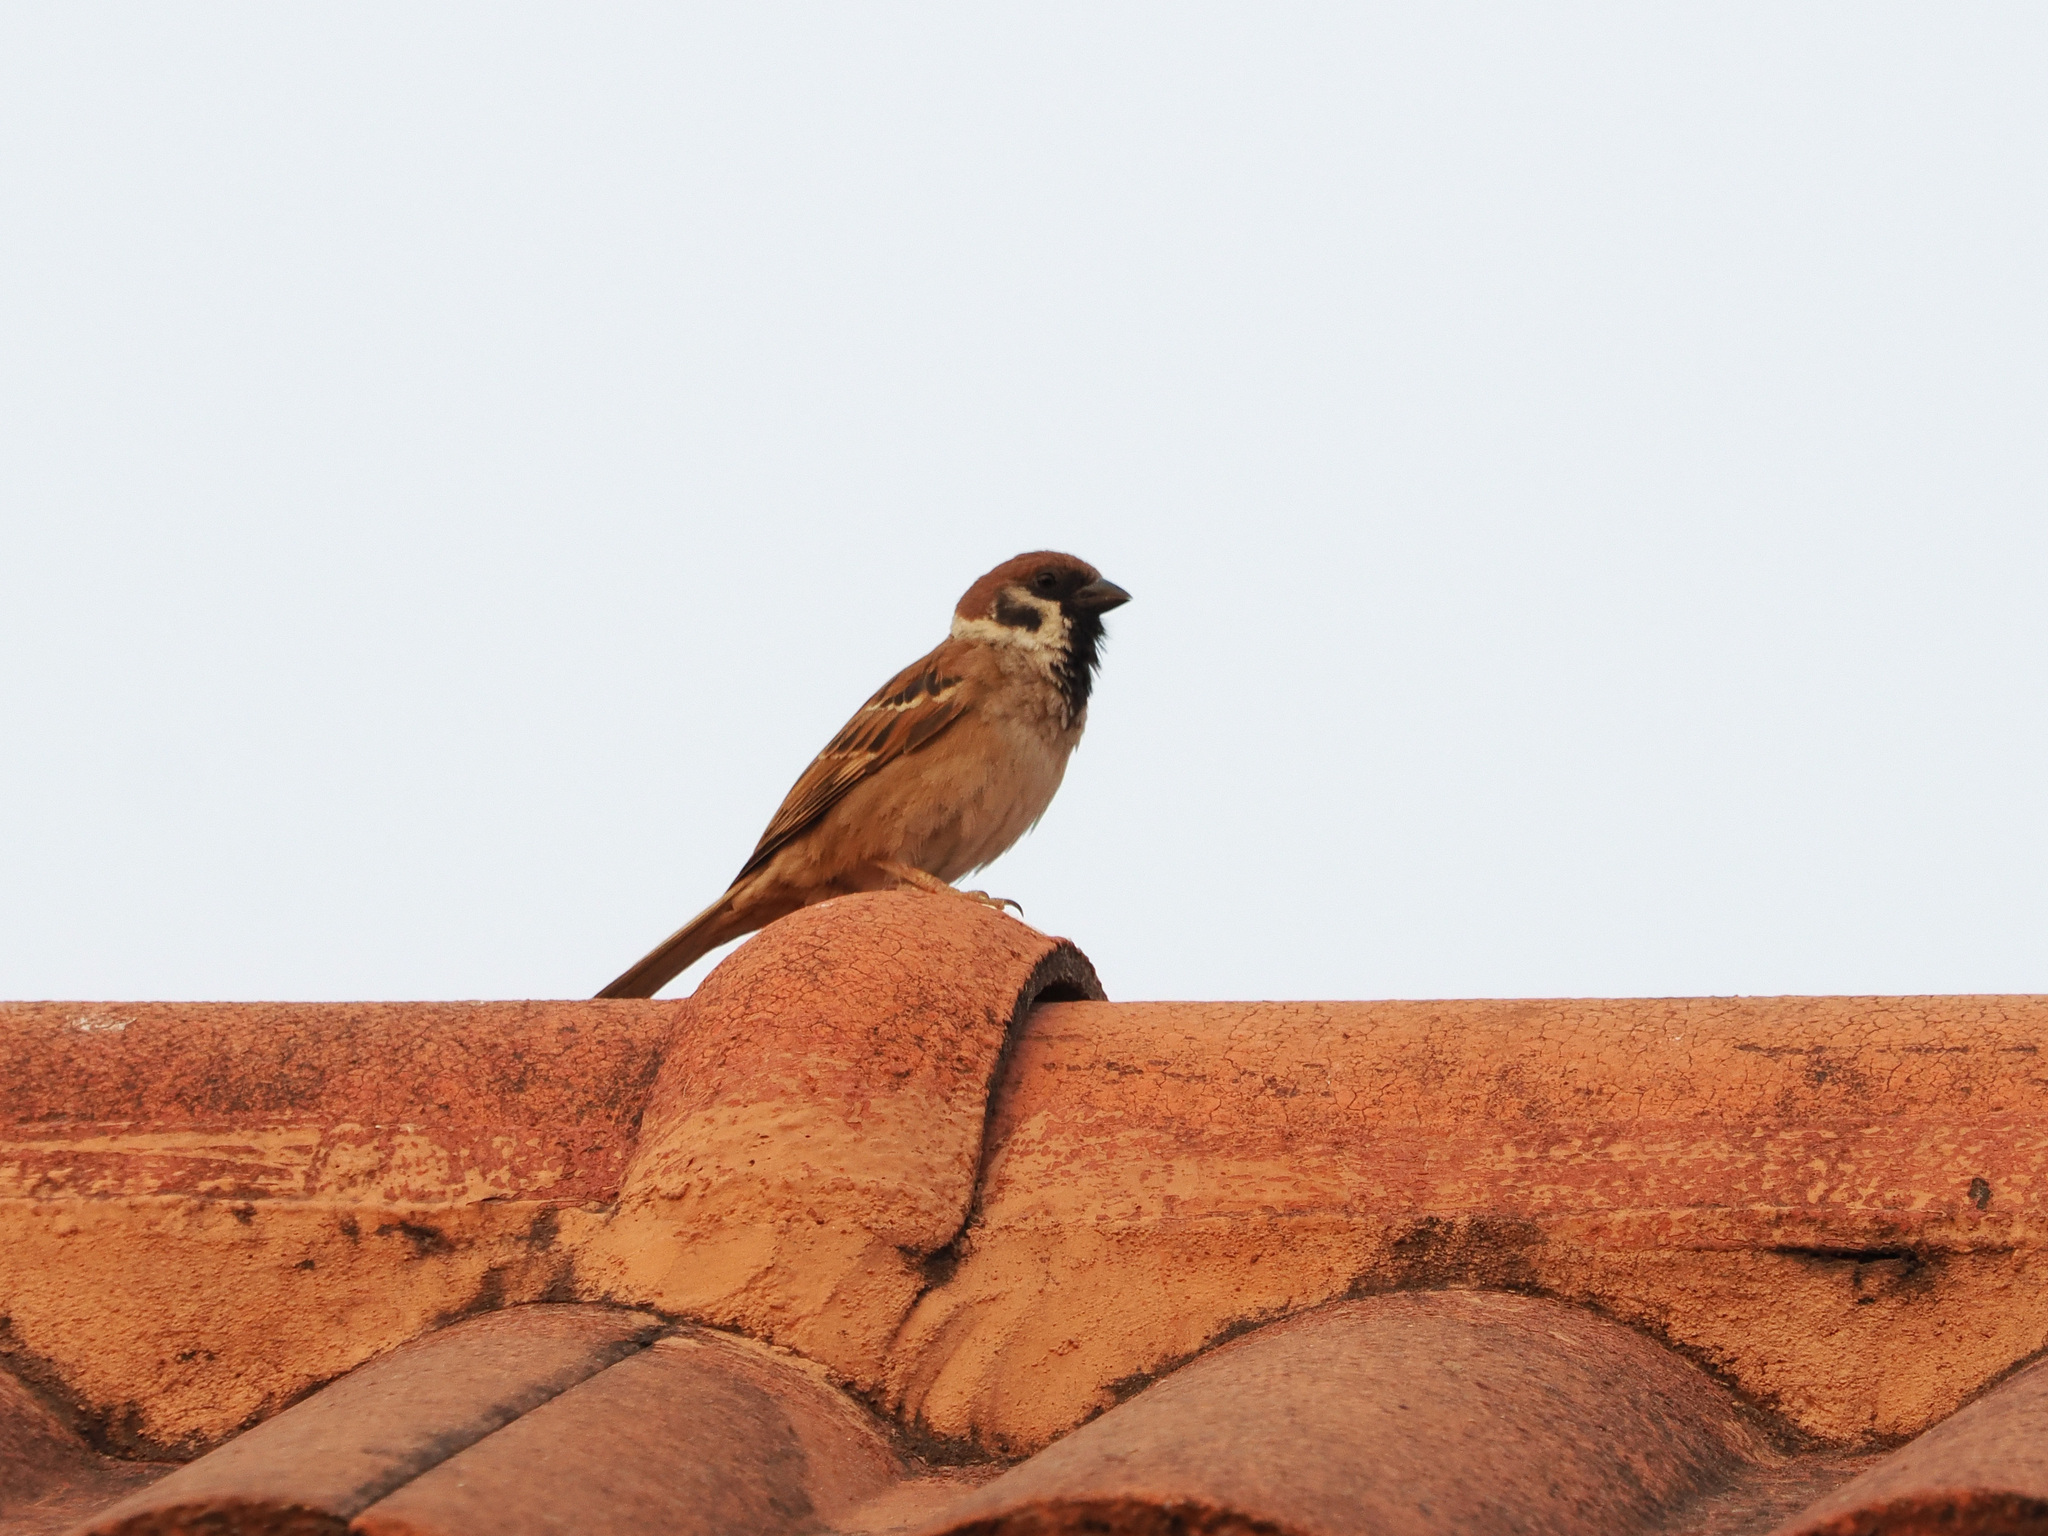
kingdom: Animalia
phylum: Chordata
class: Aves
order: Passeriformes
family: Passeridae
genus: Passer
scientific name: Passer montanus
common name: Eurasian tree sparrow
